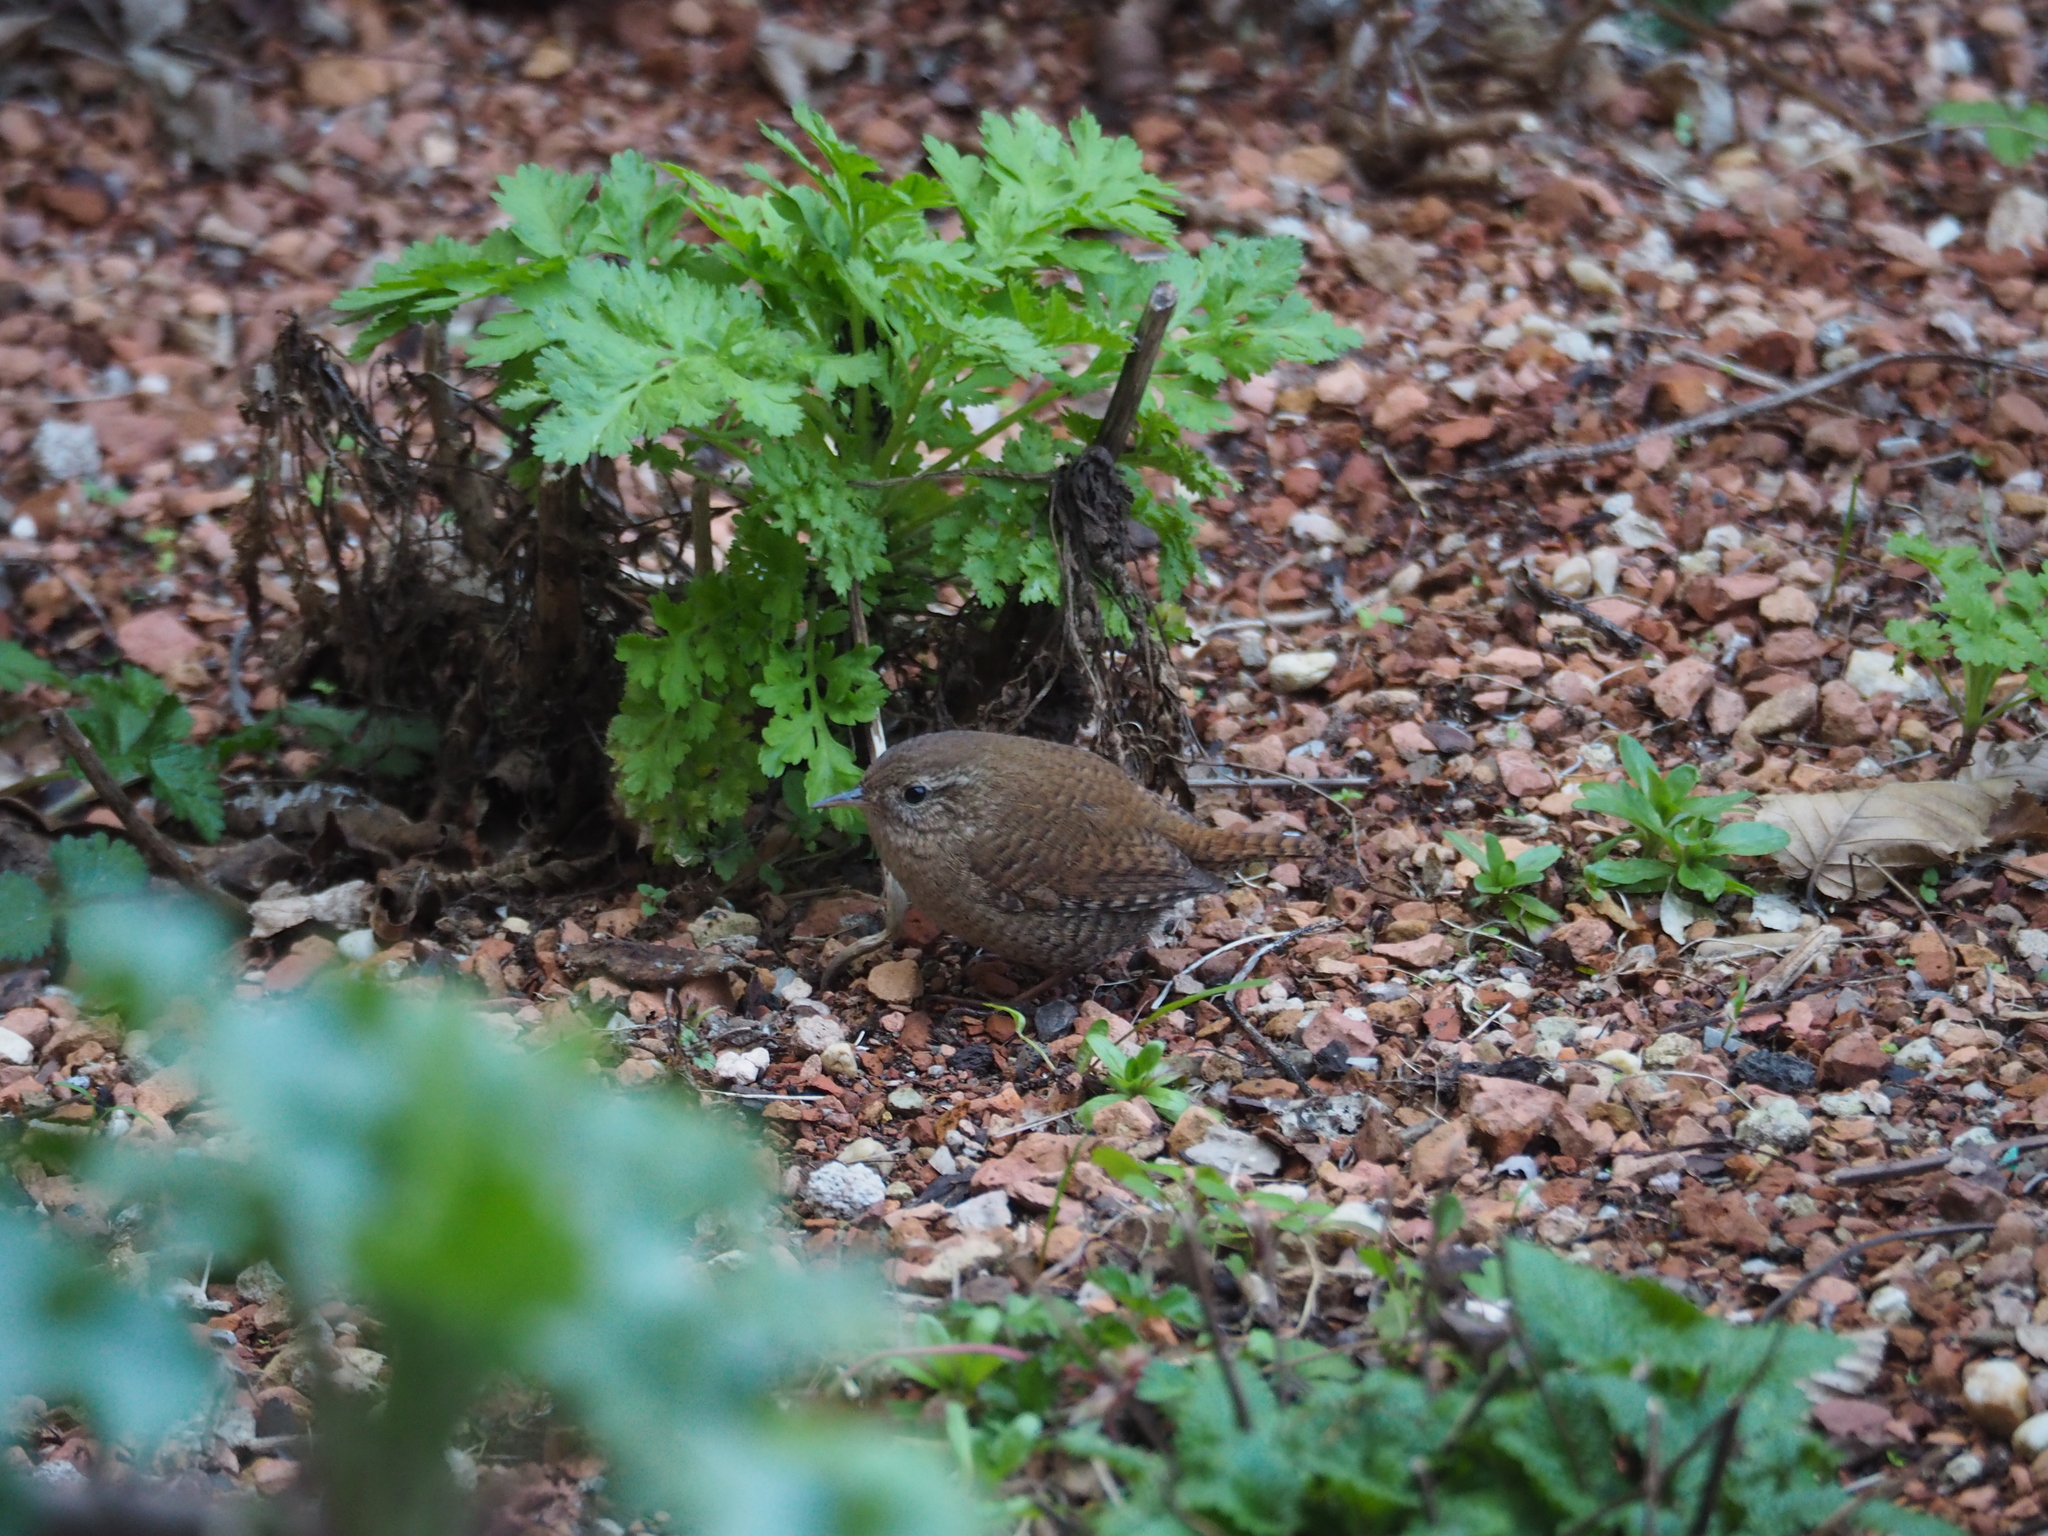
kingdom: Animalia
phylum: Chordata
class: Aves
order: Passeriformes
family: Troglodytidae
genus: Troglodytes
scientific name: Troglodytes troglodytes
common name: Eurasian wren
